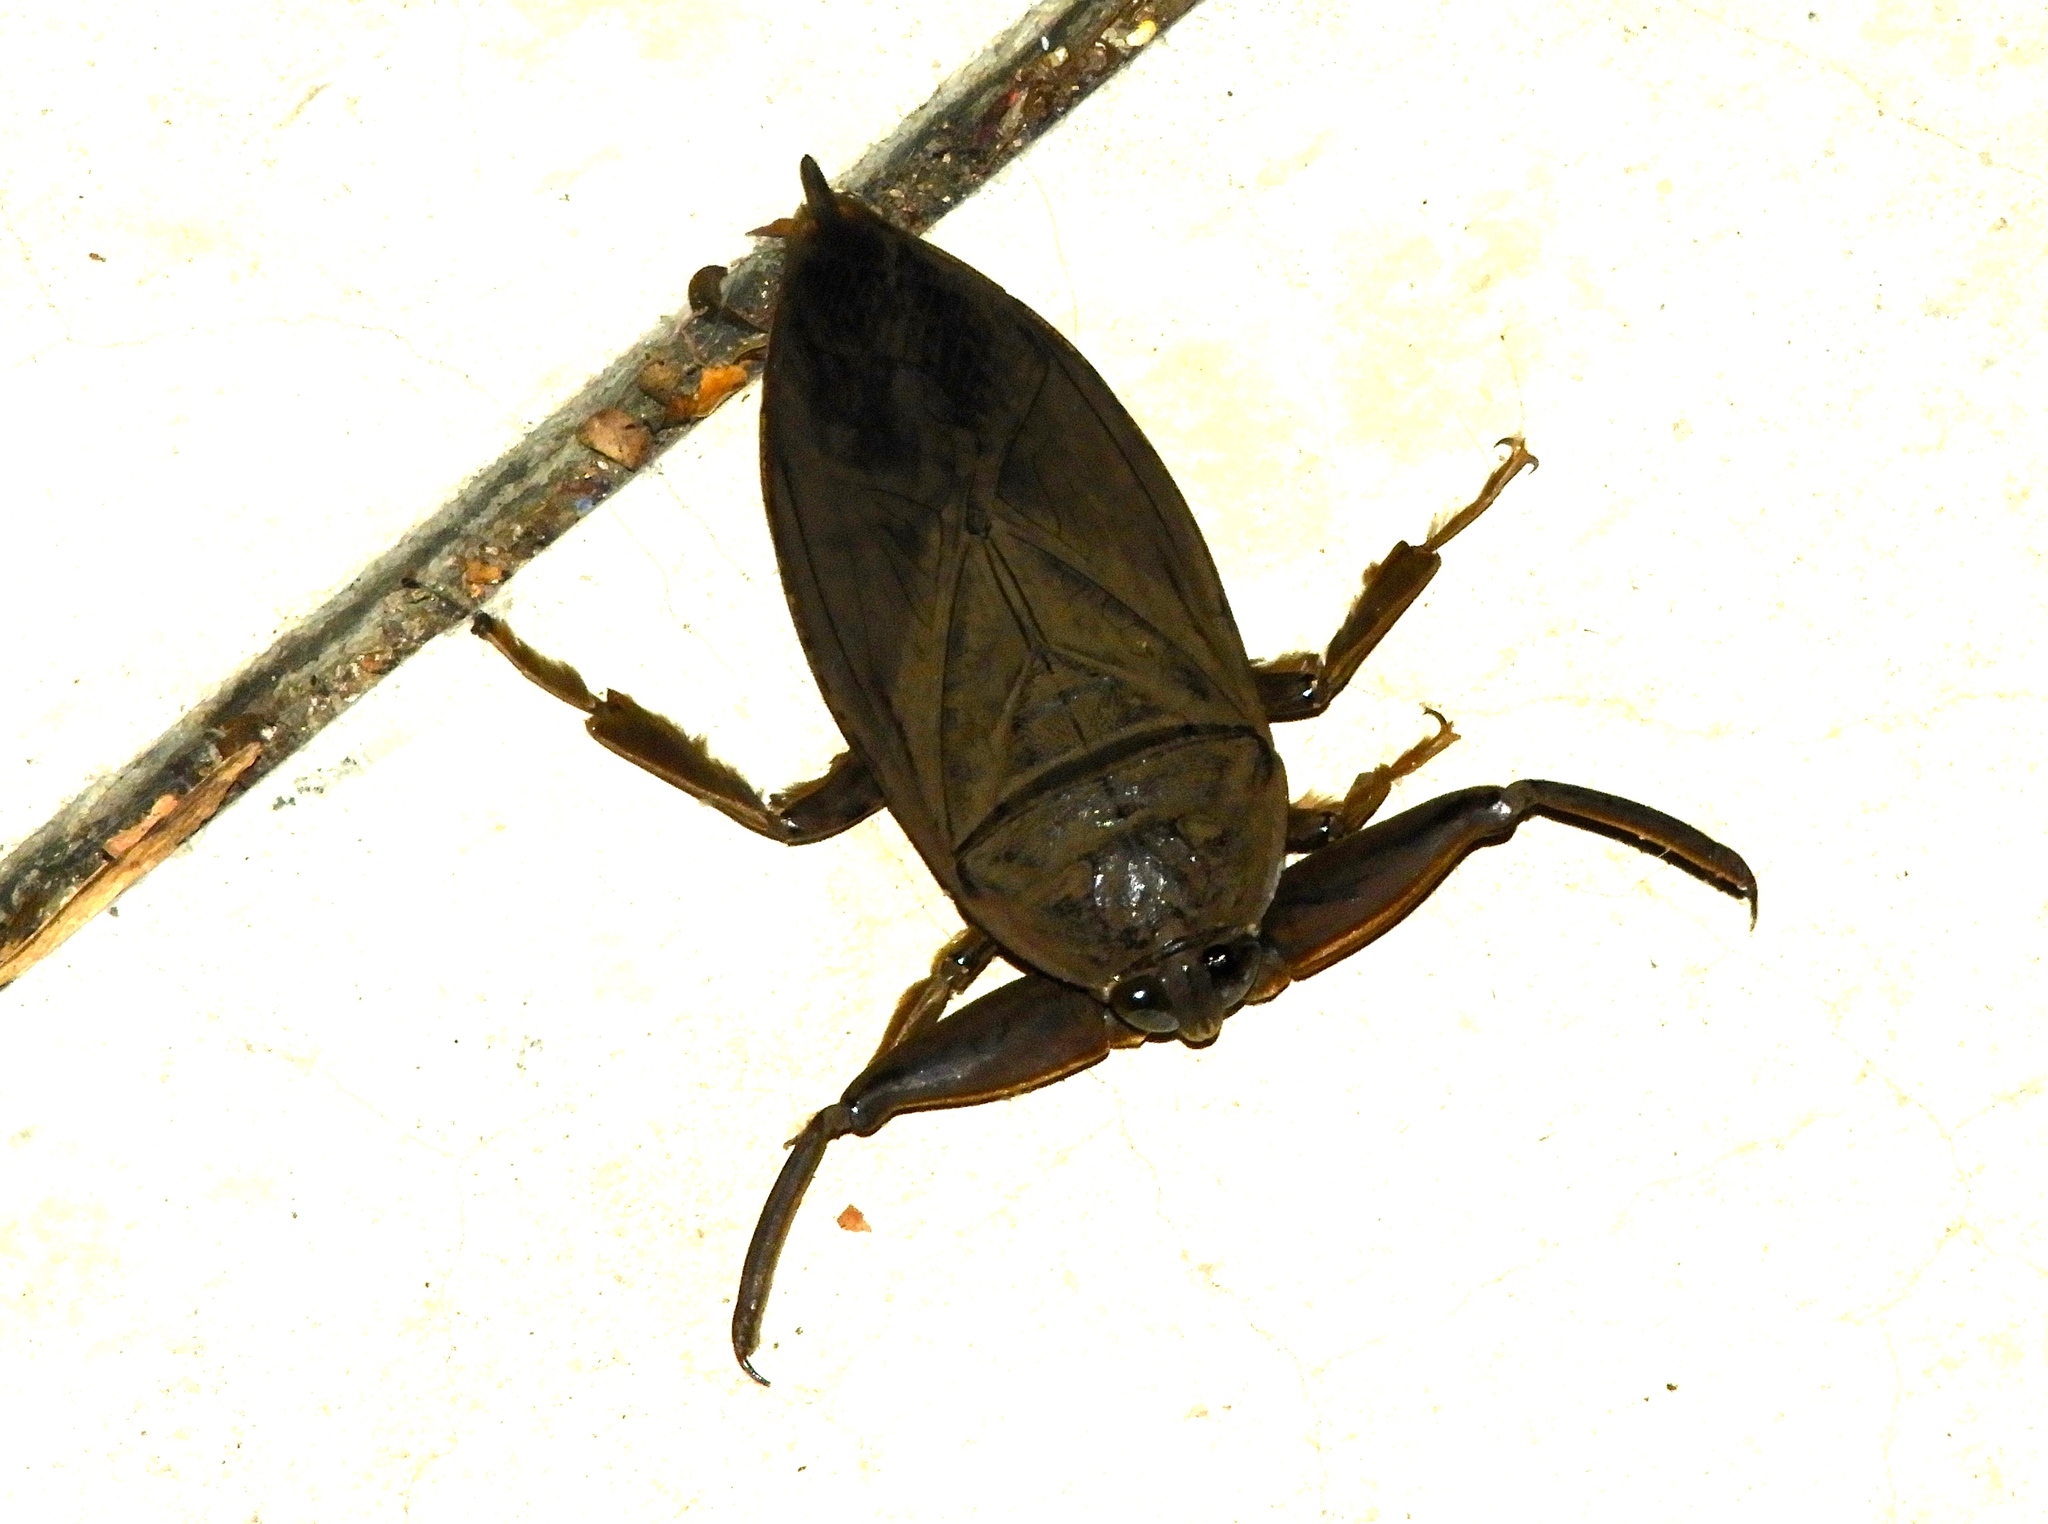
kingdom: Animalia
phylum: Arthropoda
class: Insecta
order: Hemiptera
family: Belostomatidae
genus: Lethocerus
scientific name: Lethocerus truxali
